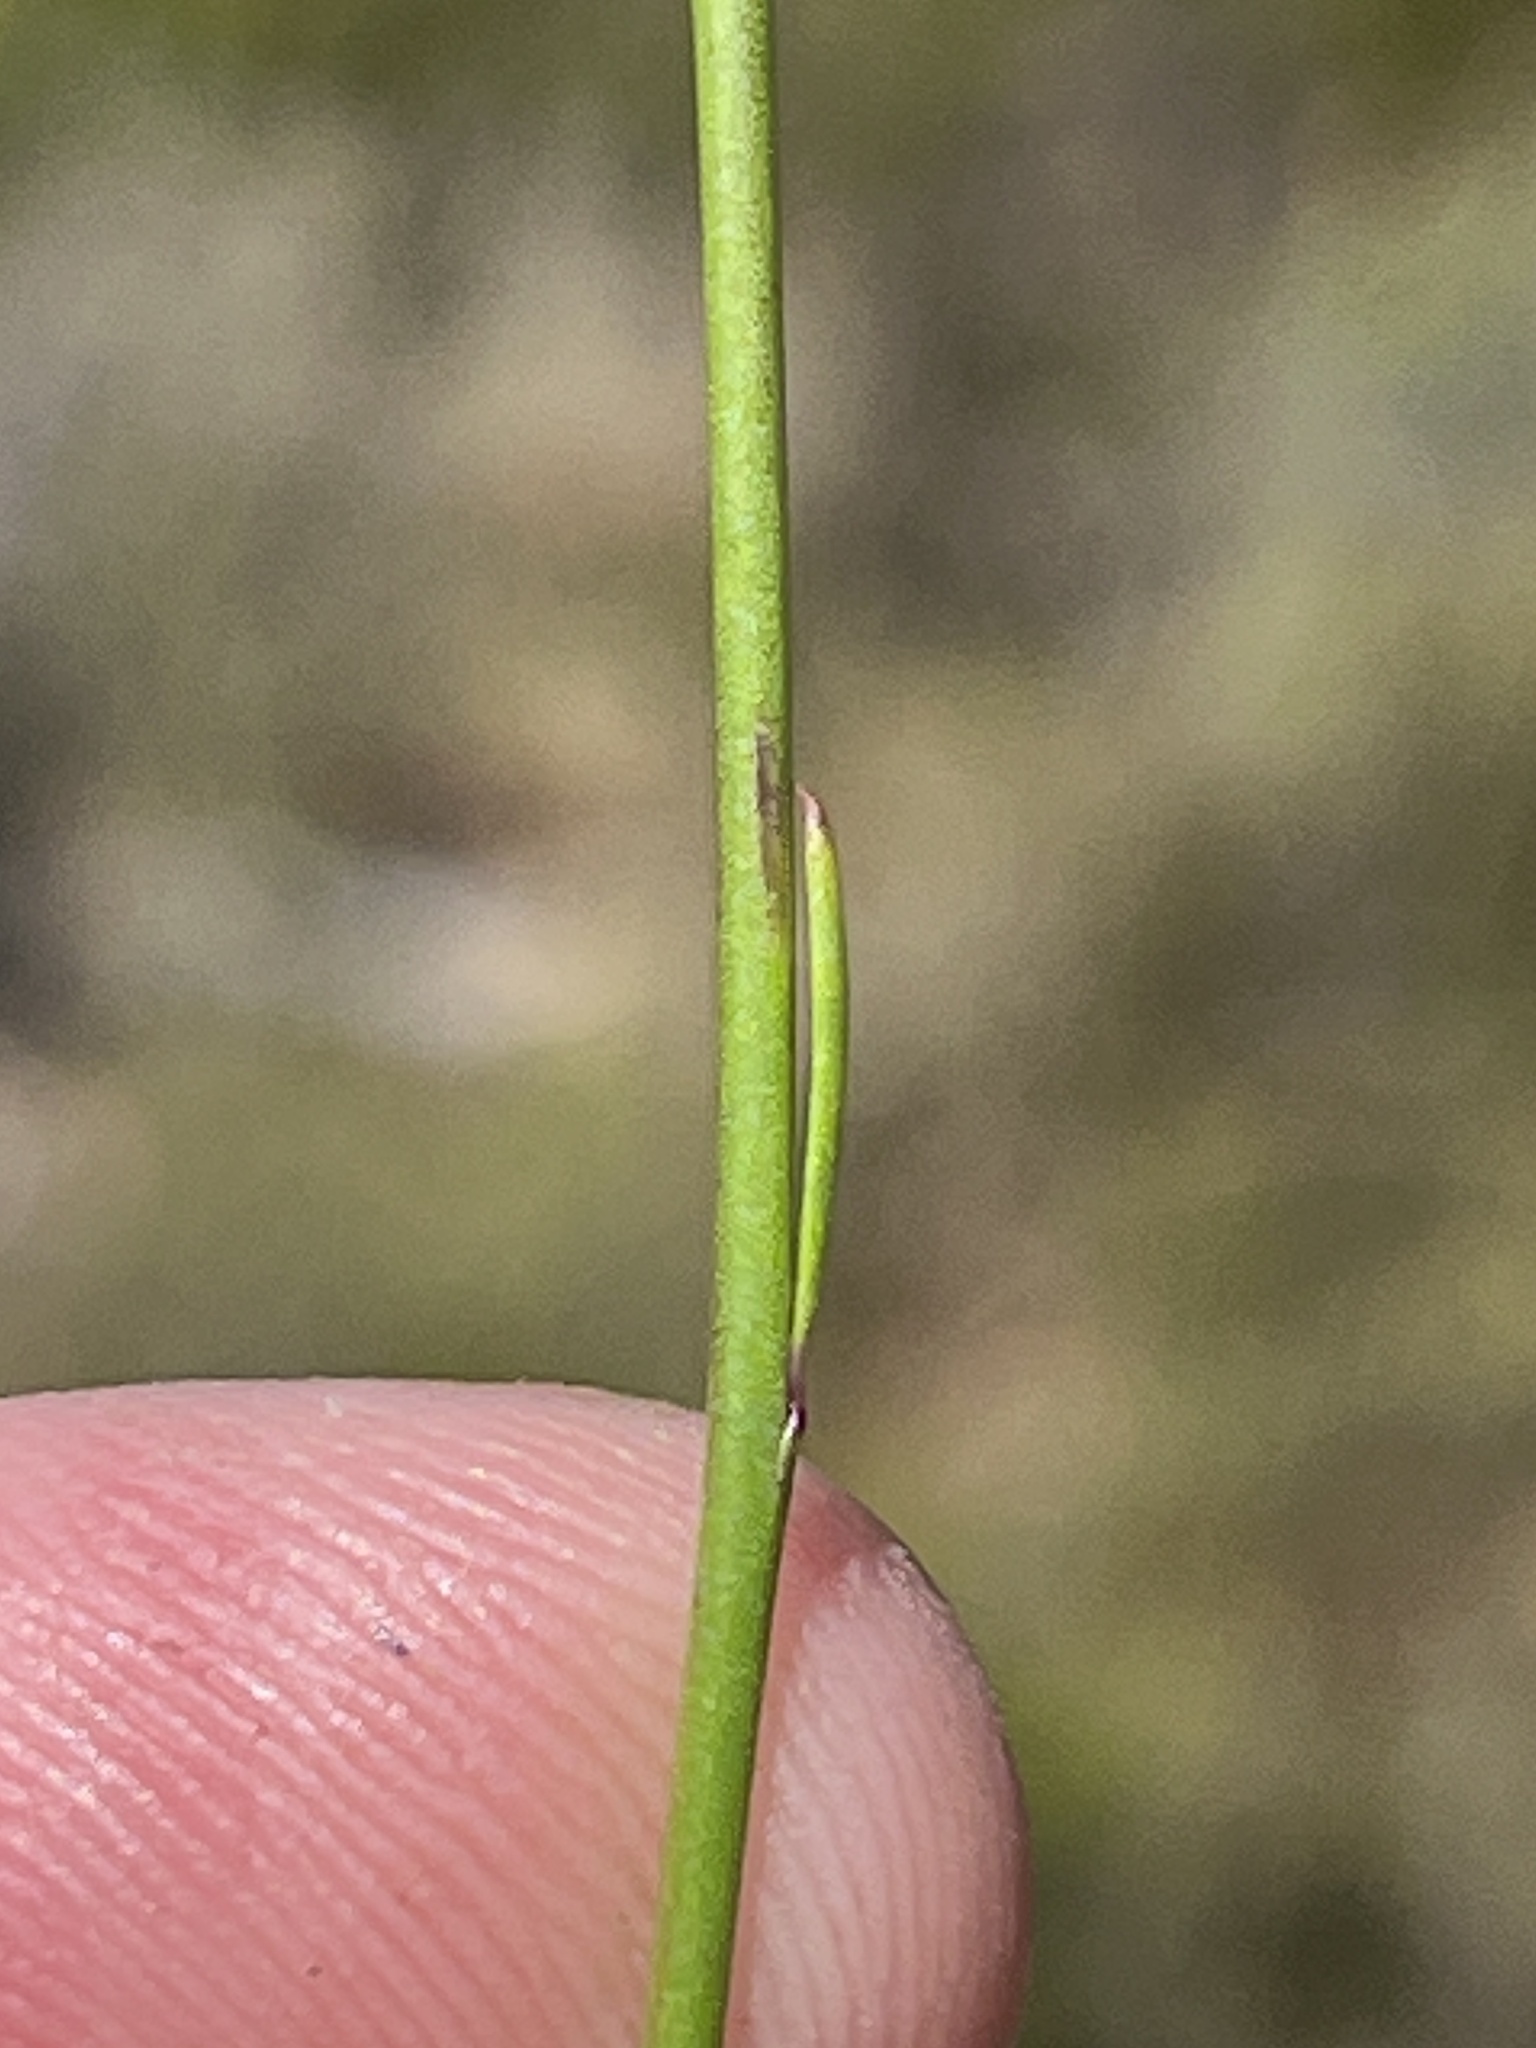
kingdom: Plantae
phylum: Tracheophyta
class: Magnoliopsida
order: Fabales
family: Polygalaceae
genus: Polygala
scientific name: Polygala garcini
